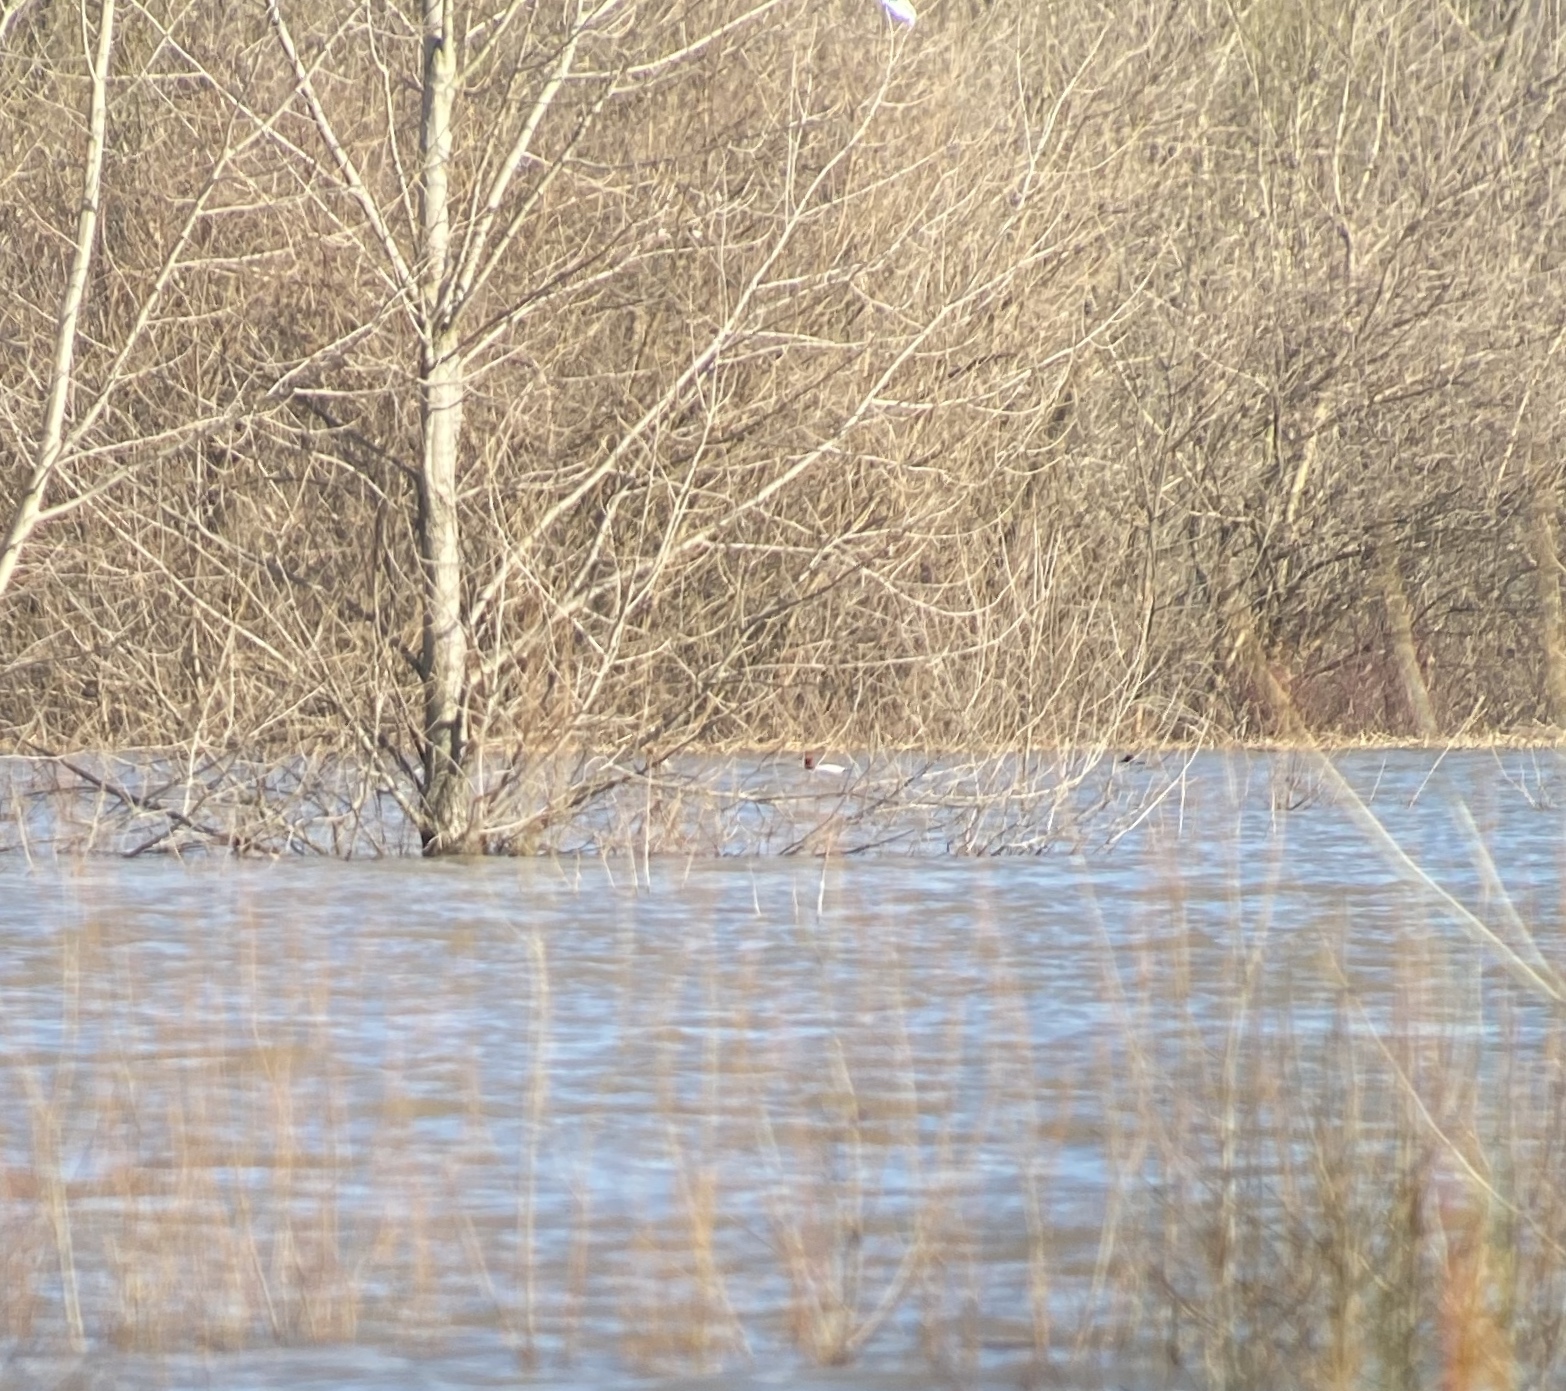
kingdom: Animalia
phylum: Chordata
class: Aves
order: Anseriformes
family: Anatidae
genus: Aythya
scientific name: Aythya valisineria
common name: Canvasback
